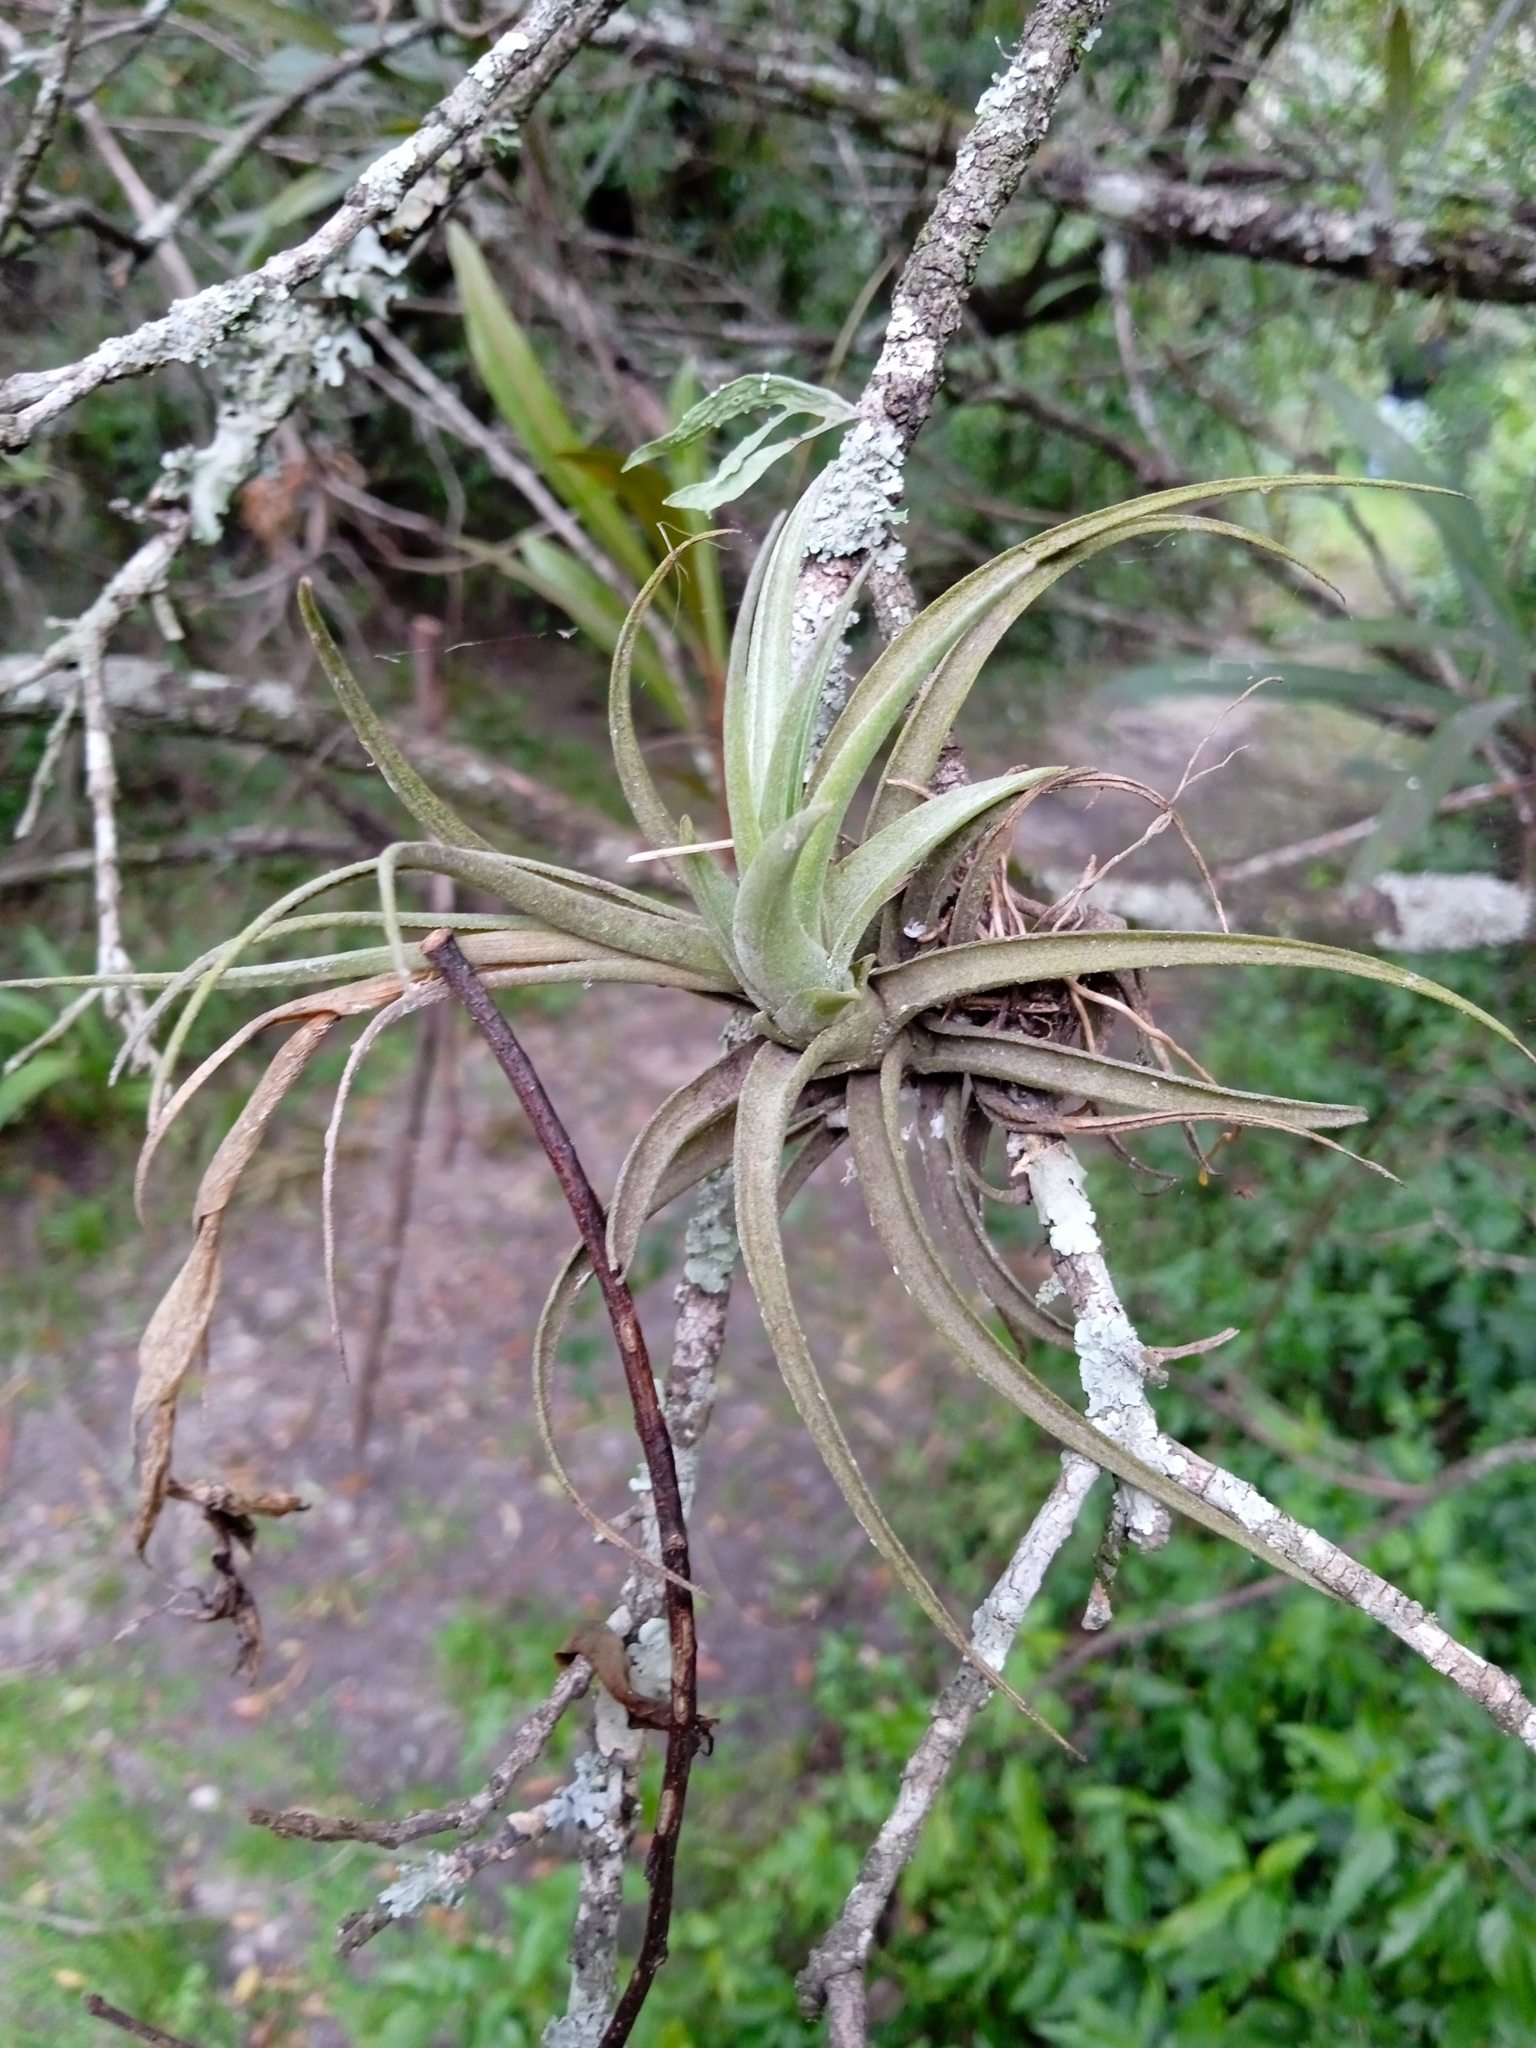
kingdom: Plantae
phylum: Tracheophyta
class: Liliopsida
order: Poales
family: Bromeliaceae
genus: Tillandsia
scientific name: Tillandsia aeranthos
